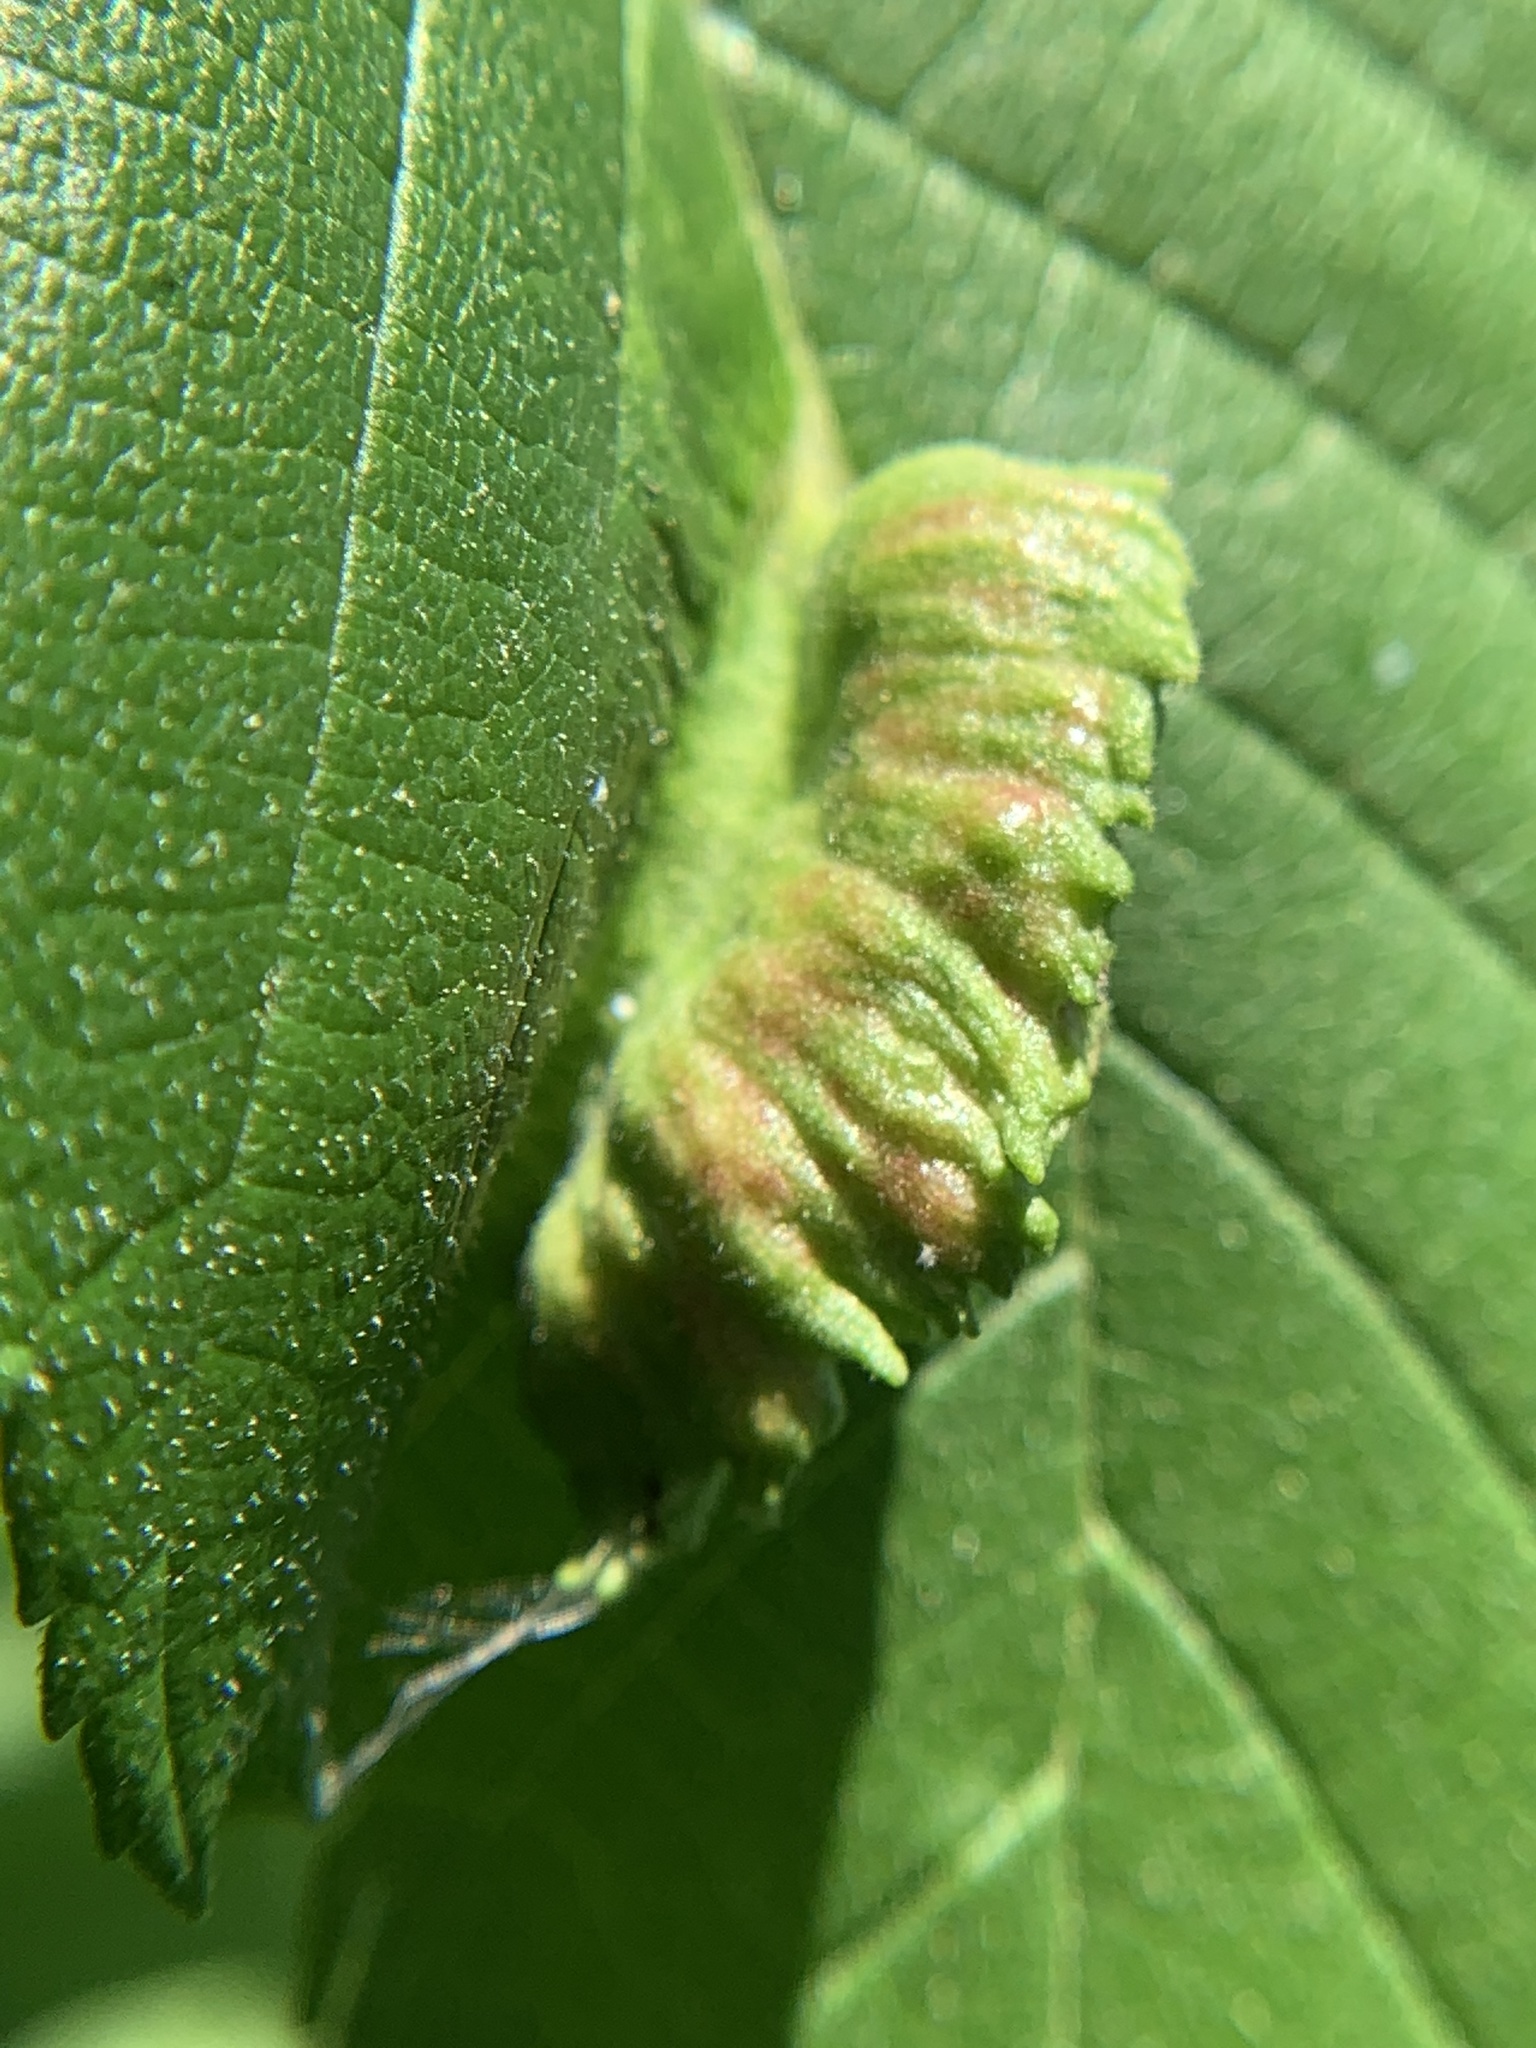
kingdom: Animalia
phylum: Arthropoda
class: Insecta
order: Hemiptera
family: Aphididae
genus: Colopha
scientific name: Colopha ulmicola
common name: Elm cockscombgall aphid
